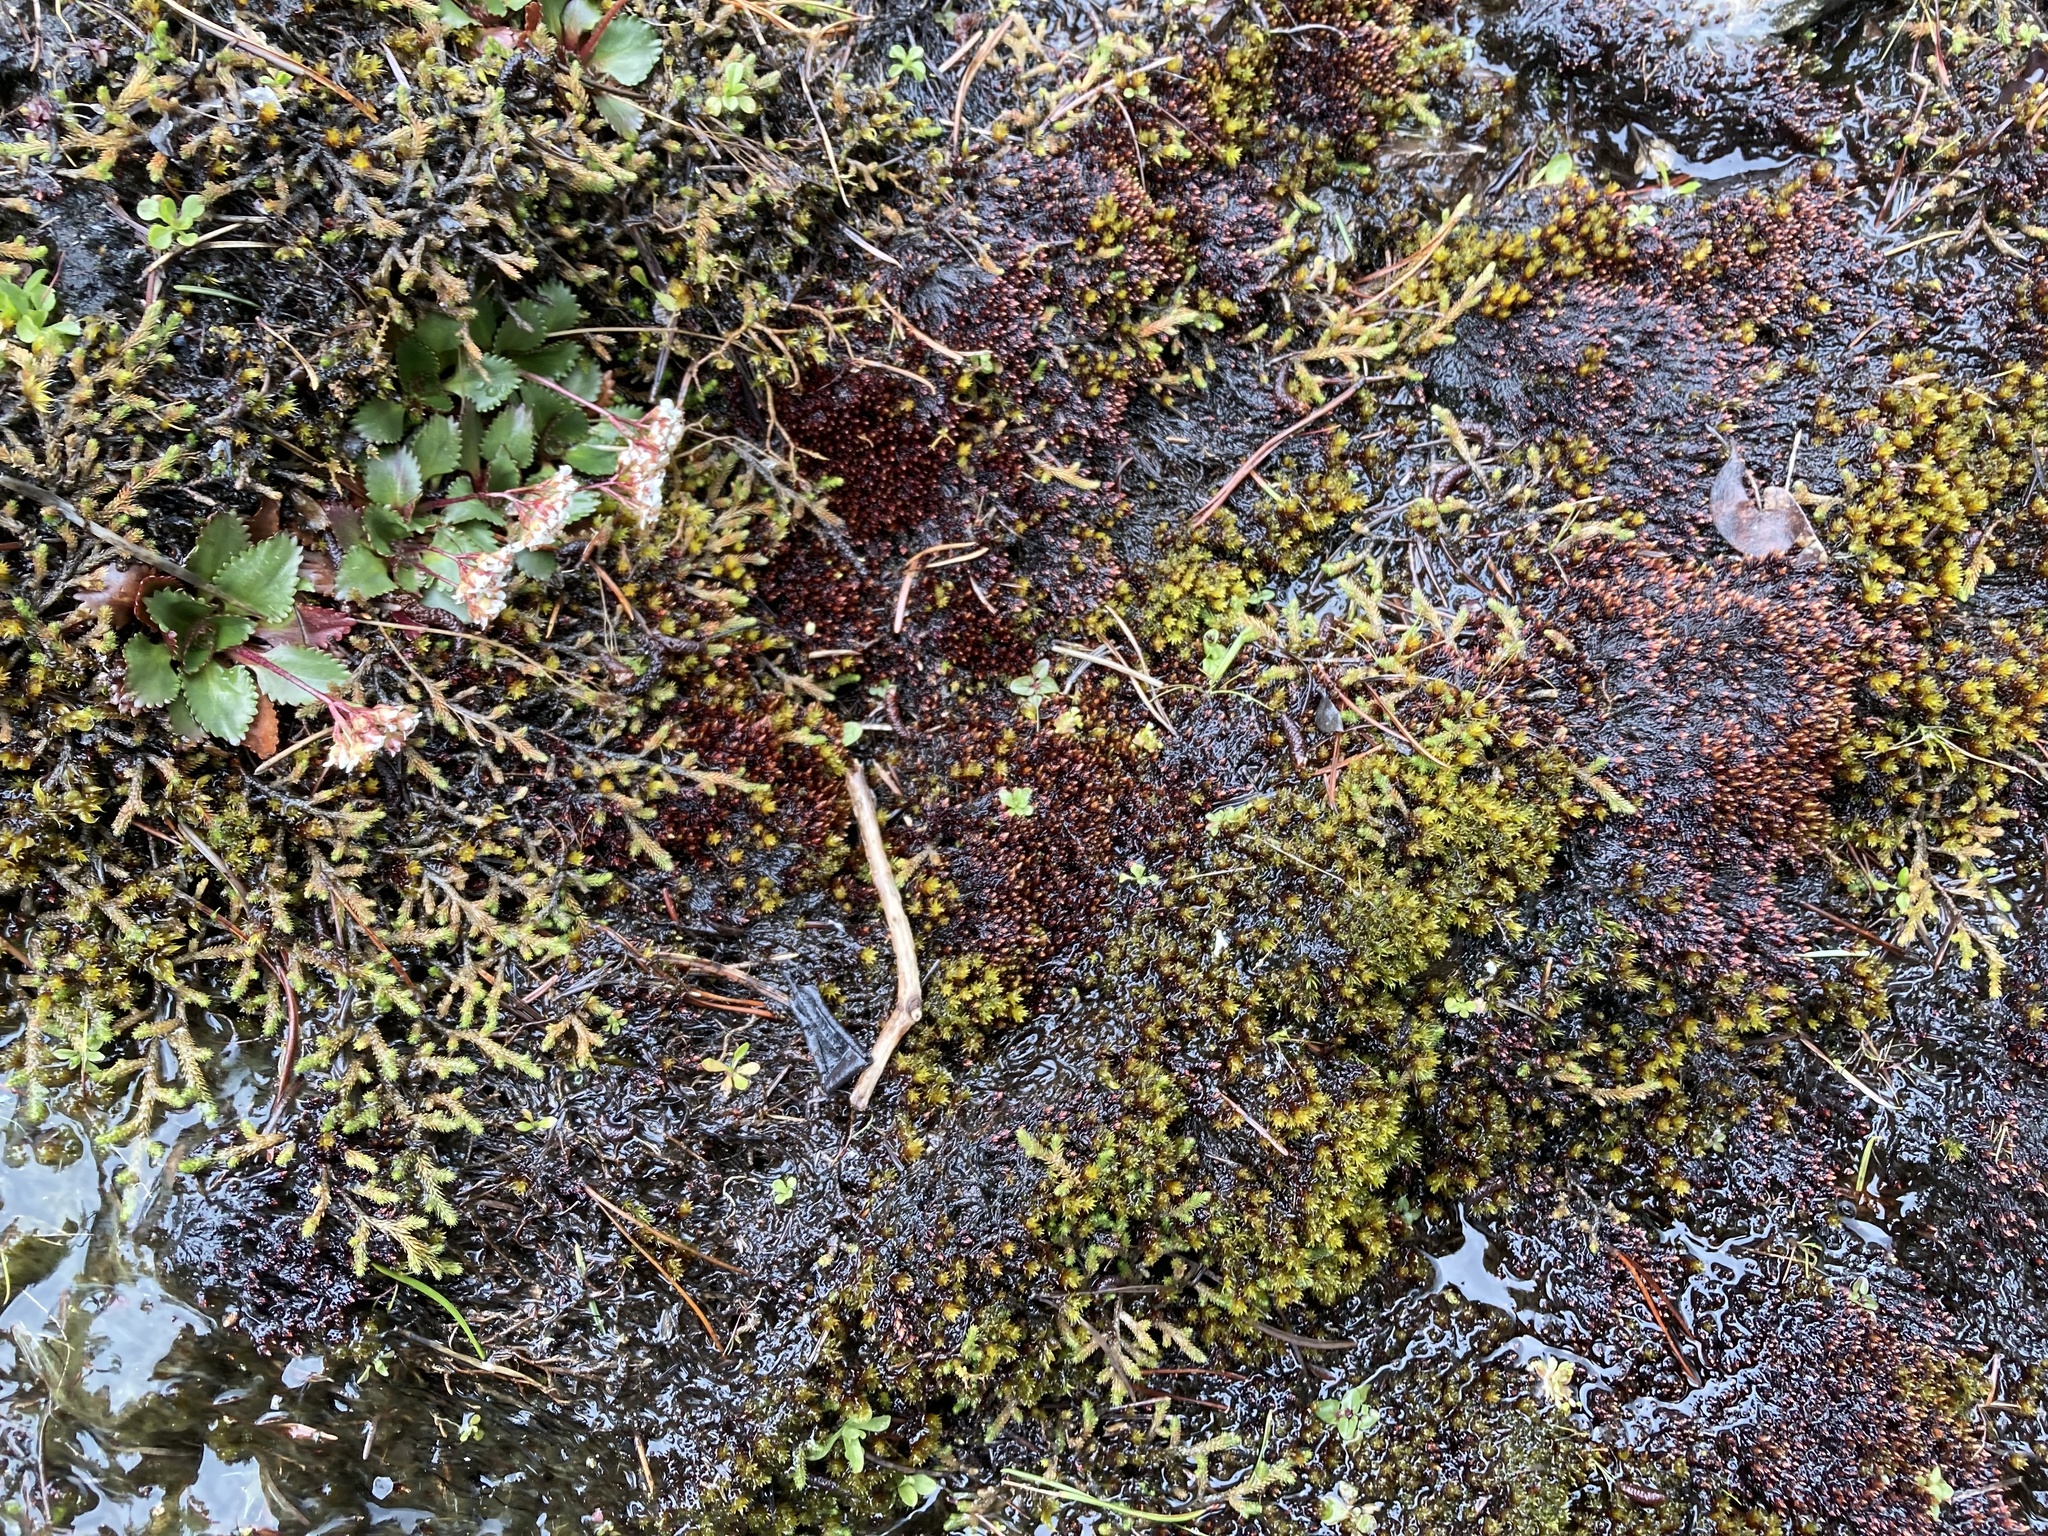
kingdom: Plantae
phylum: Bryophyta
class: Bryopsida
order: Bryales
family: Bryaceae
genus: Imbribryum
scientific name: Imbribryum miniatum
